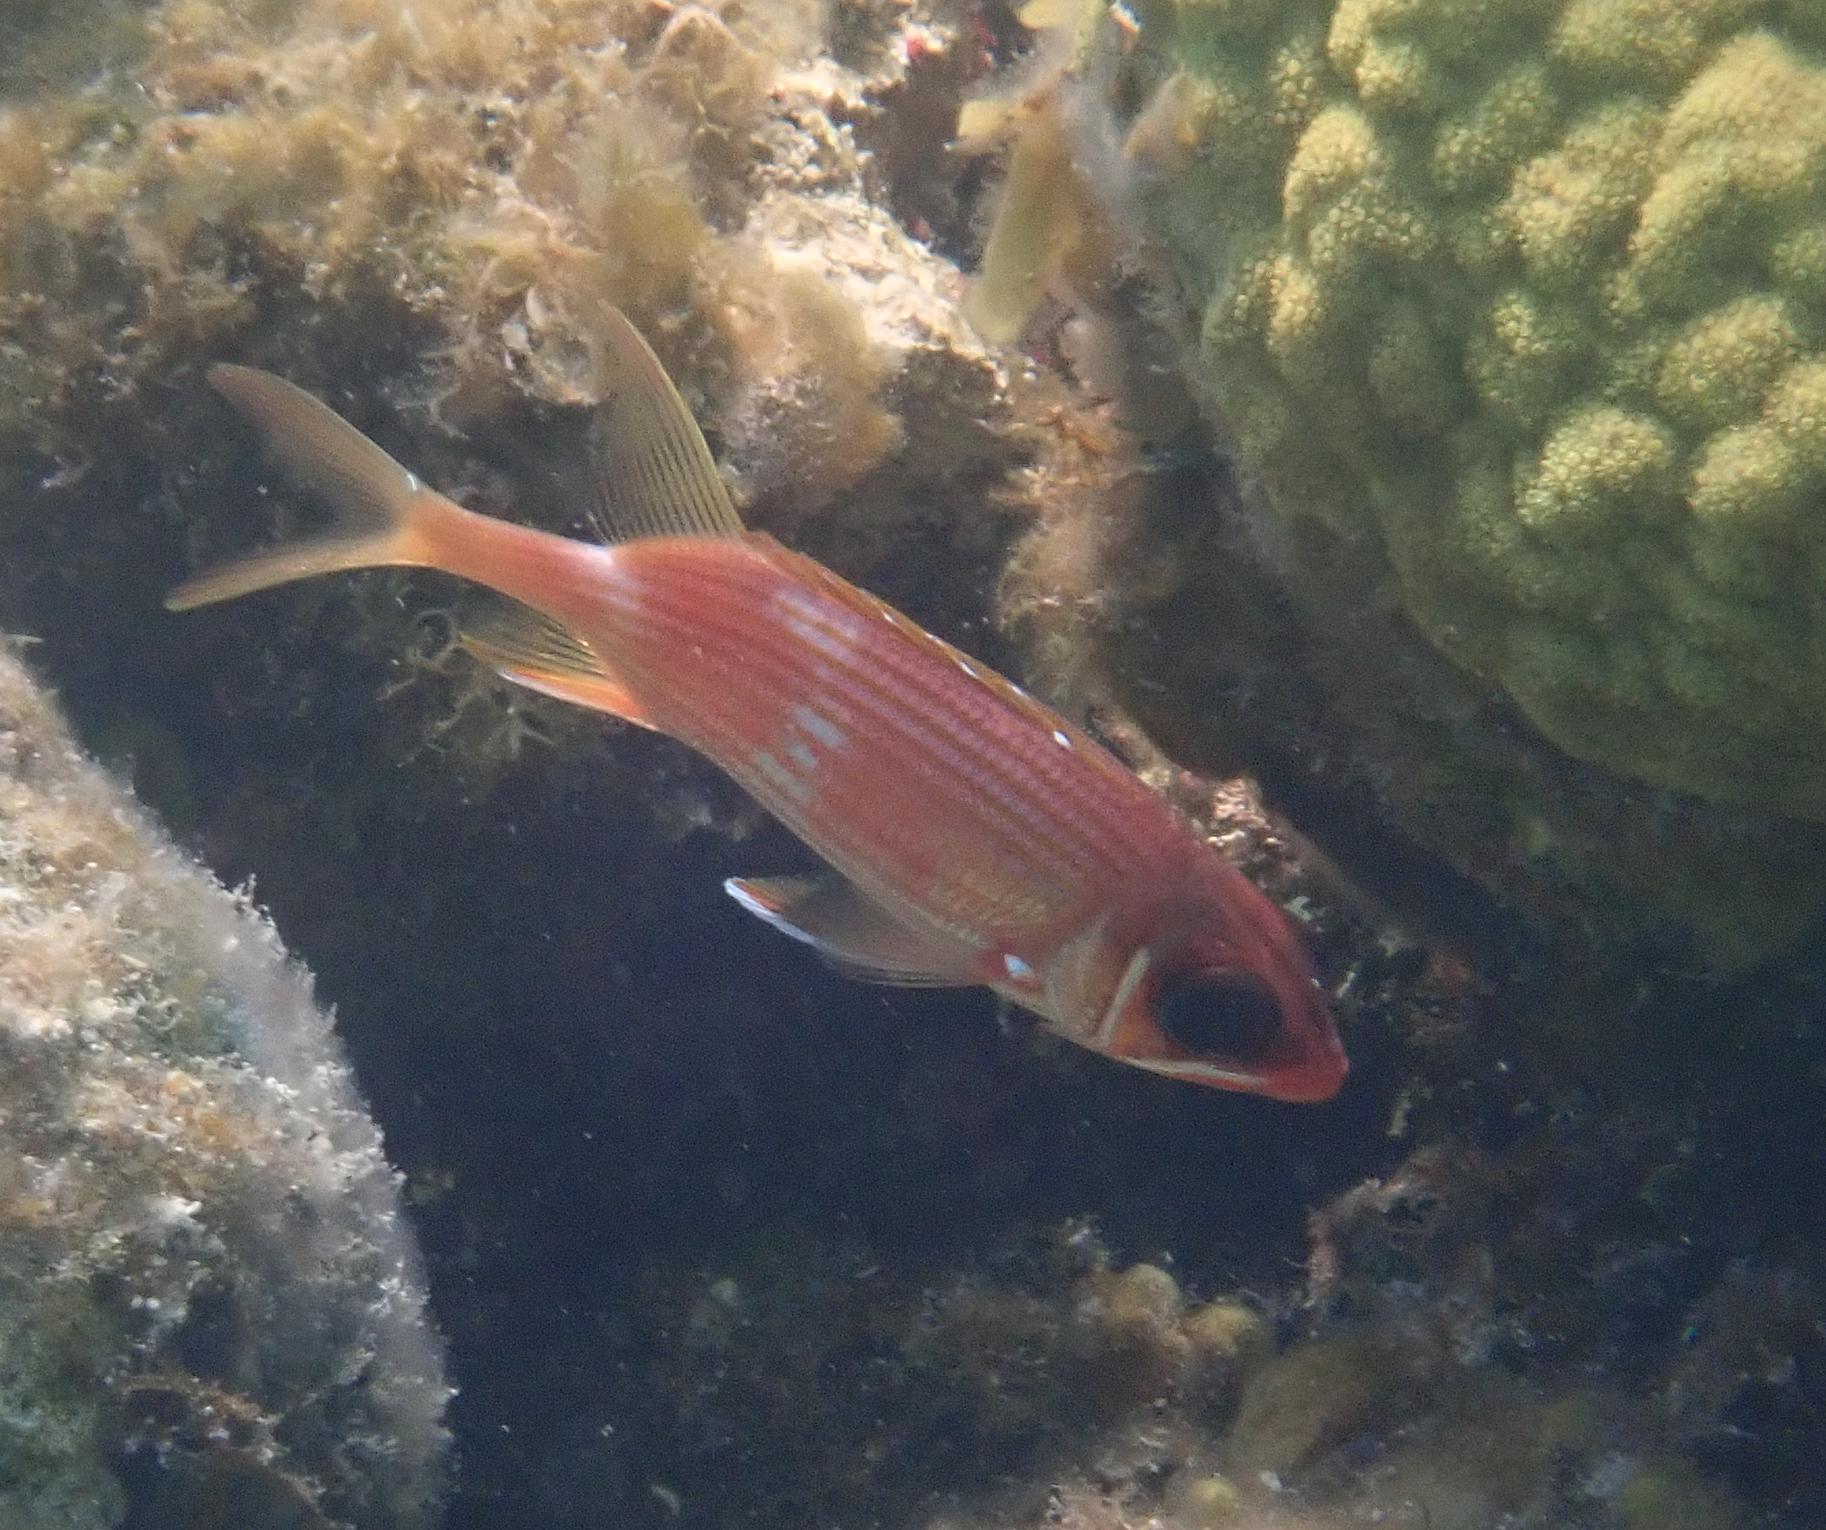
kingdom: Animalia
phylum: Chordata
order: Beryciformes
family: Holocentridae
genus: Holocentrus
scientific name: Holocentrus rufus
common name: Longspine squirrelfish
